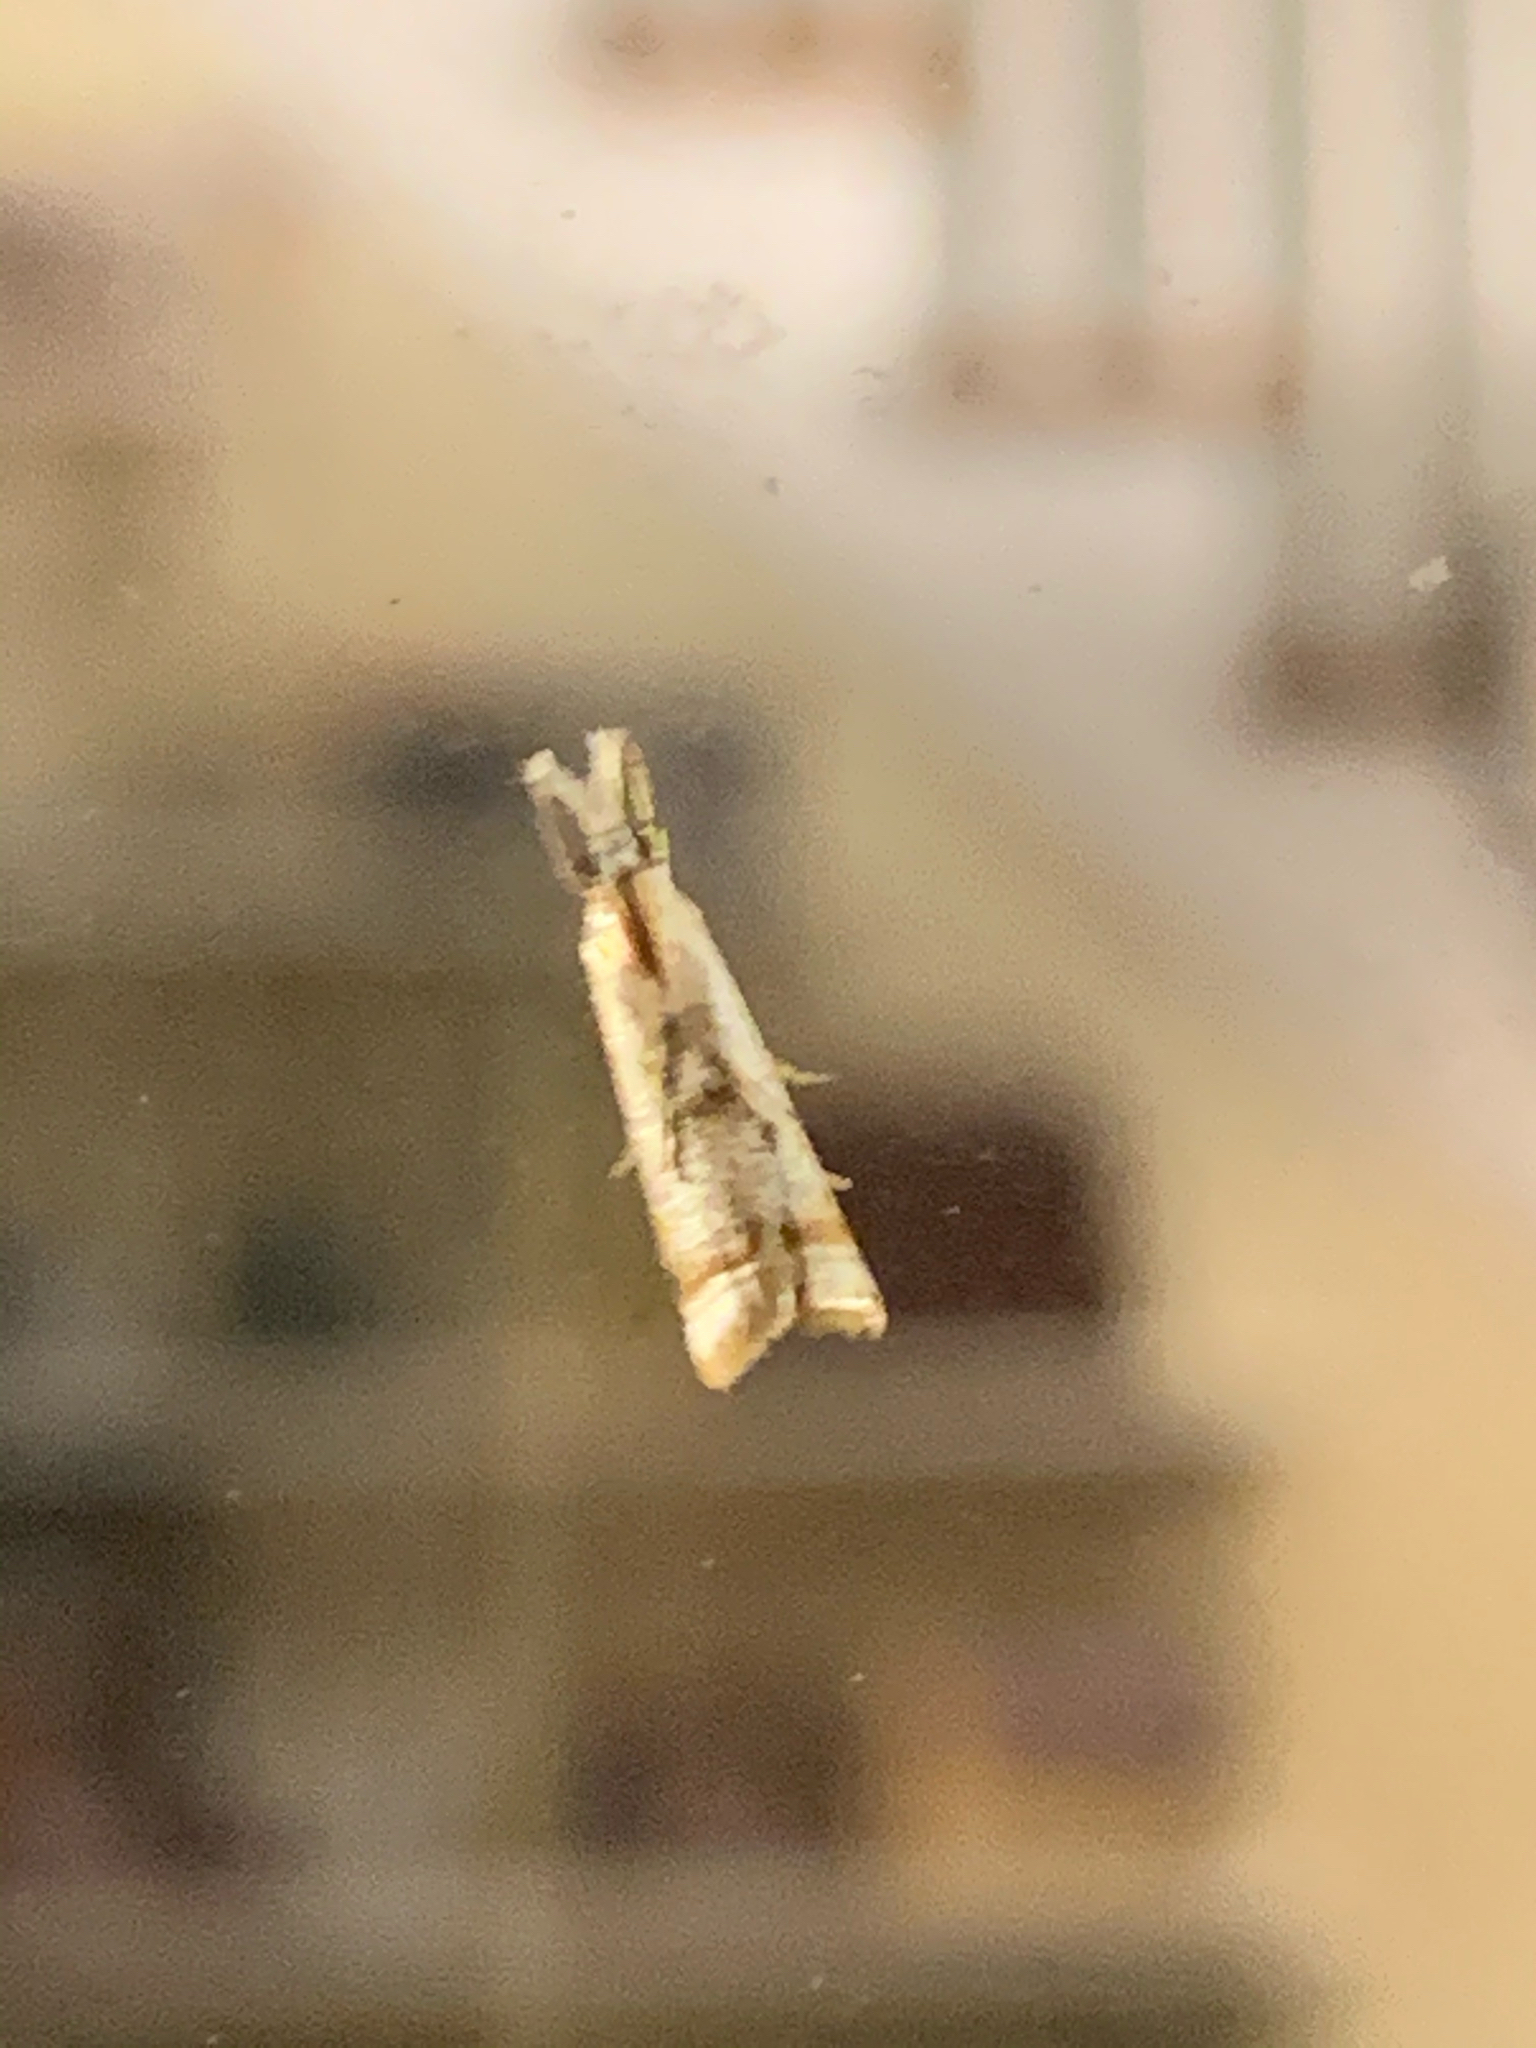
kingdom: Animalia
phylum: Arthropoda
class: Insecta
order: Lepidoptera
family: Crambidae
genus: Microcrambus
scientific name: Microcrambus elegans
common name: Elegant grass-veneer
